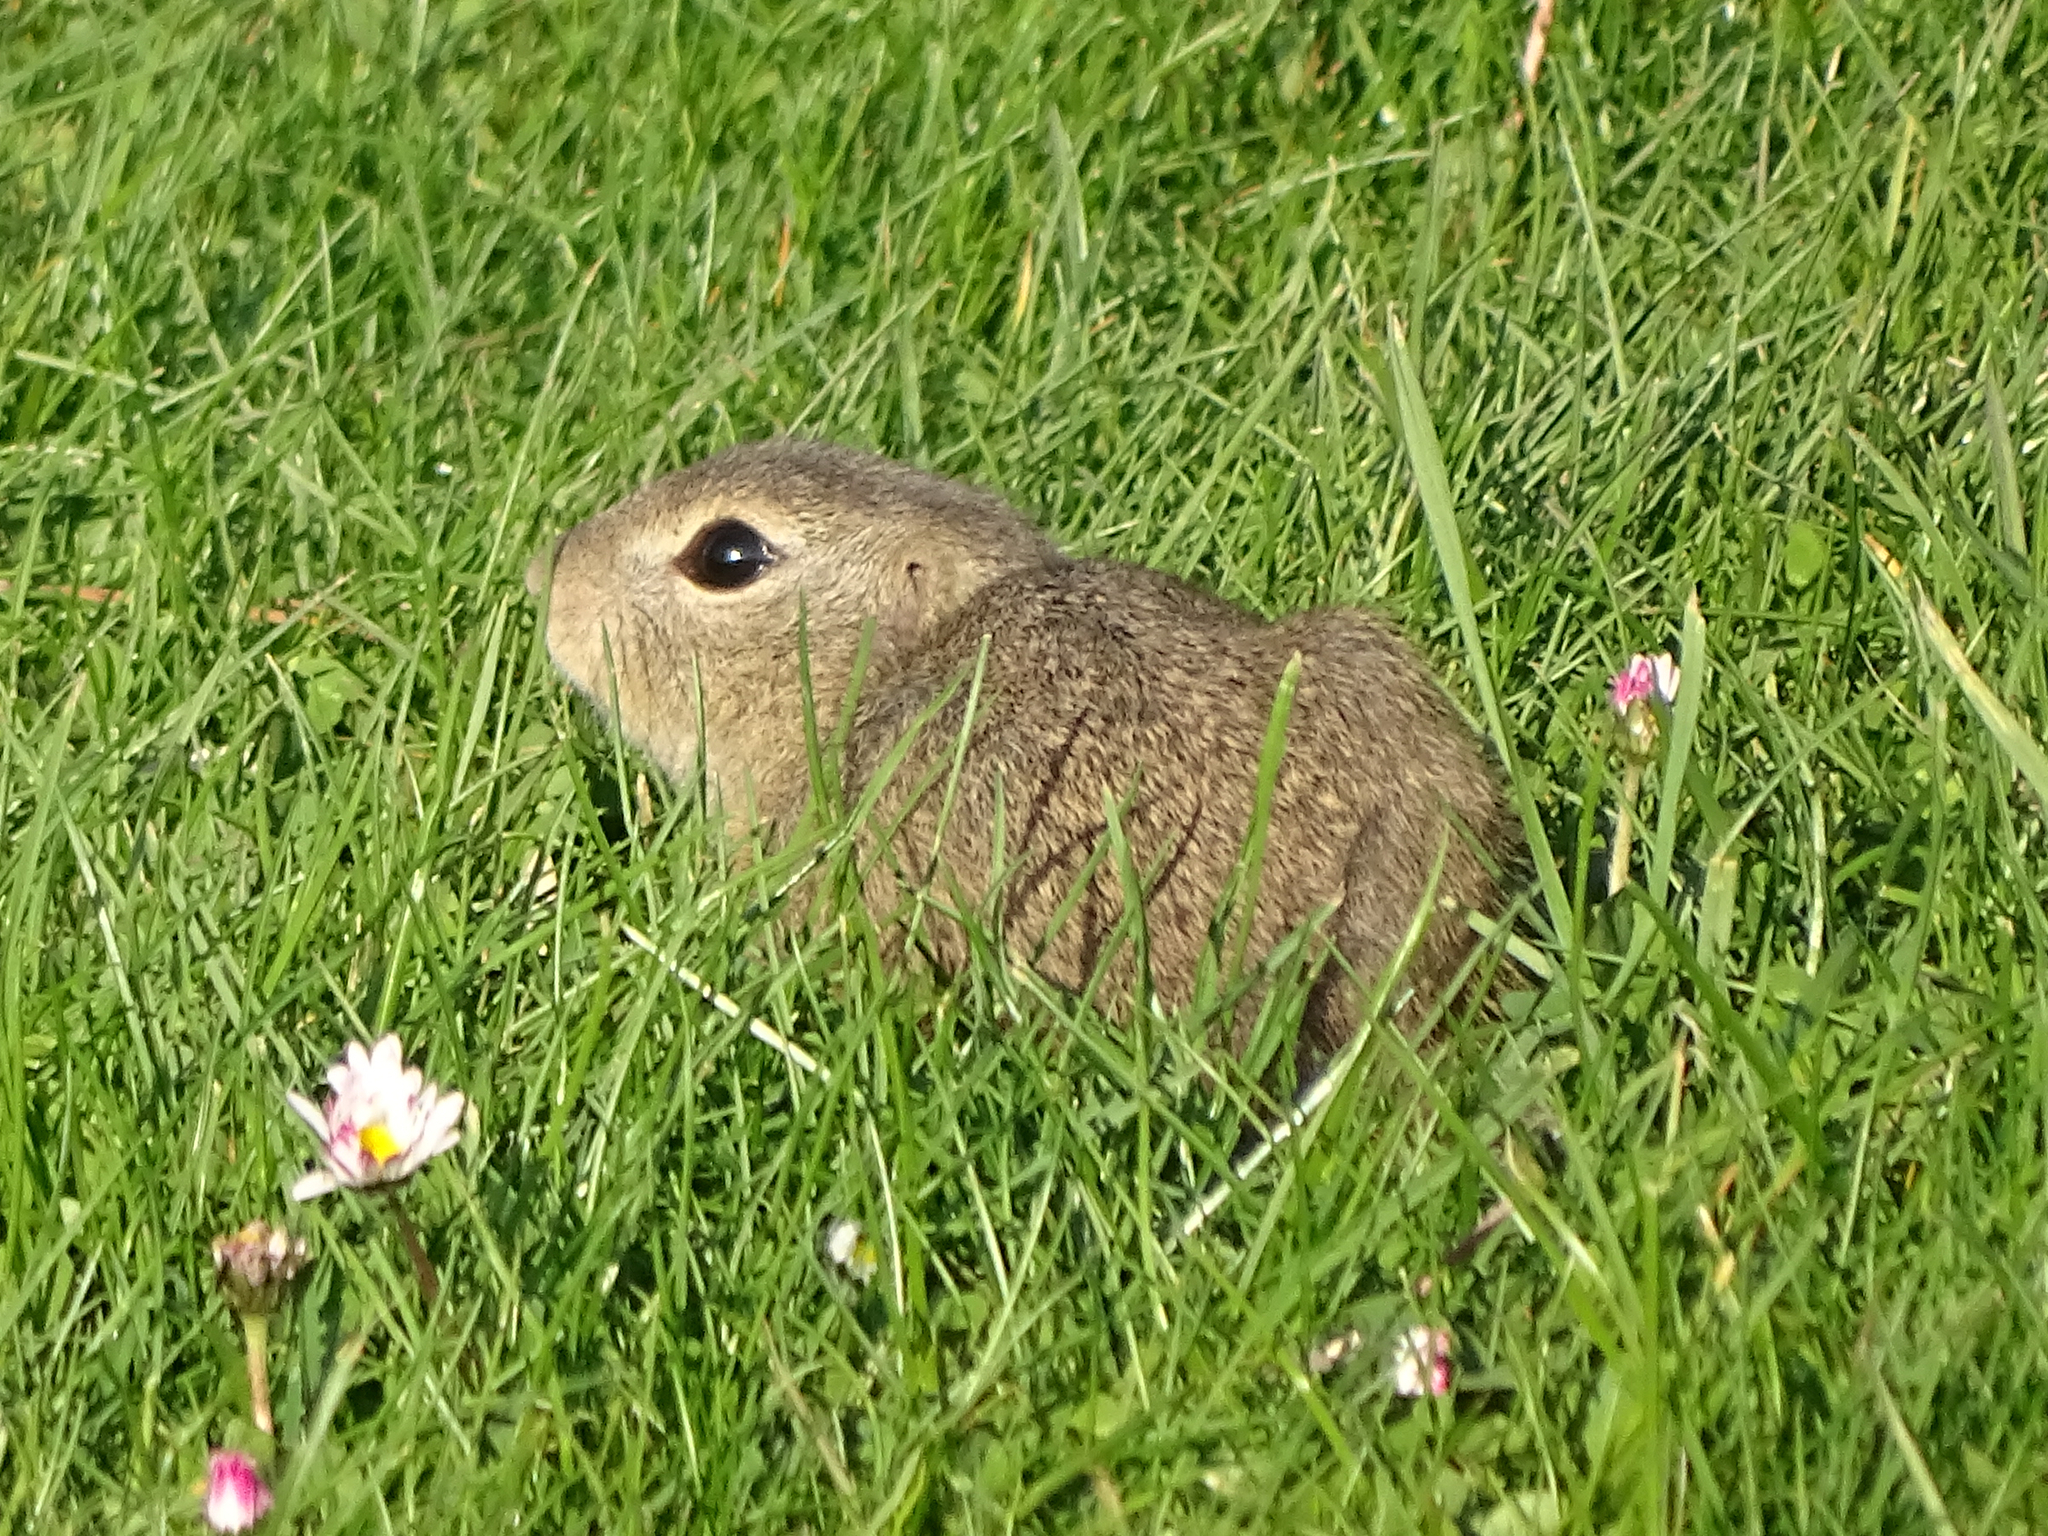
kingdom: Animalia
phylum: Chordata
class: Mammalia
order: Rodentia
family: Sciuridae
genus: Spermophilus
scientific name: Spermophilus citellus
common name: European ground squirrel
